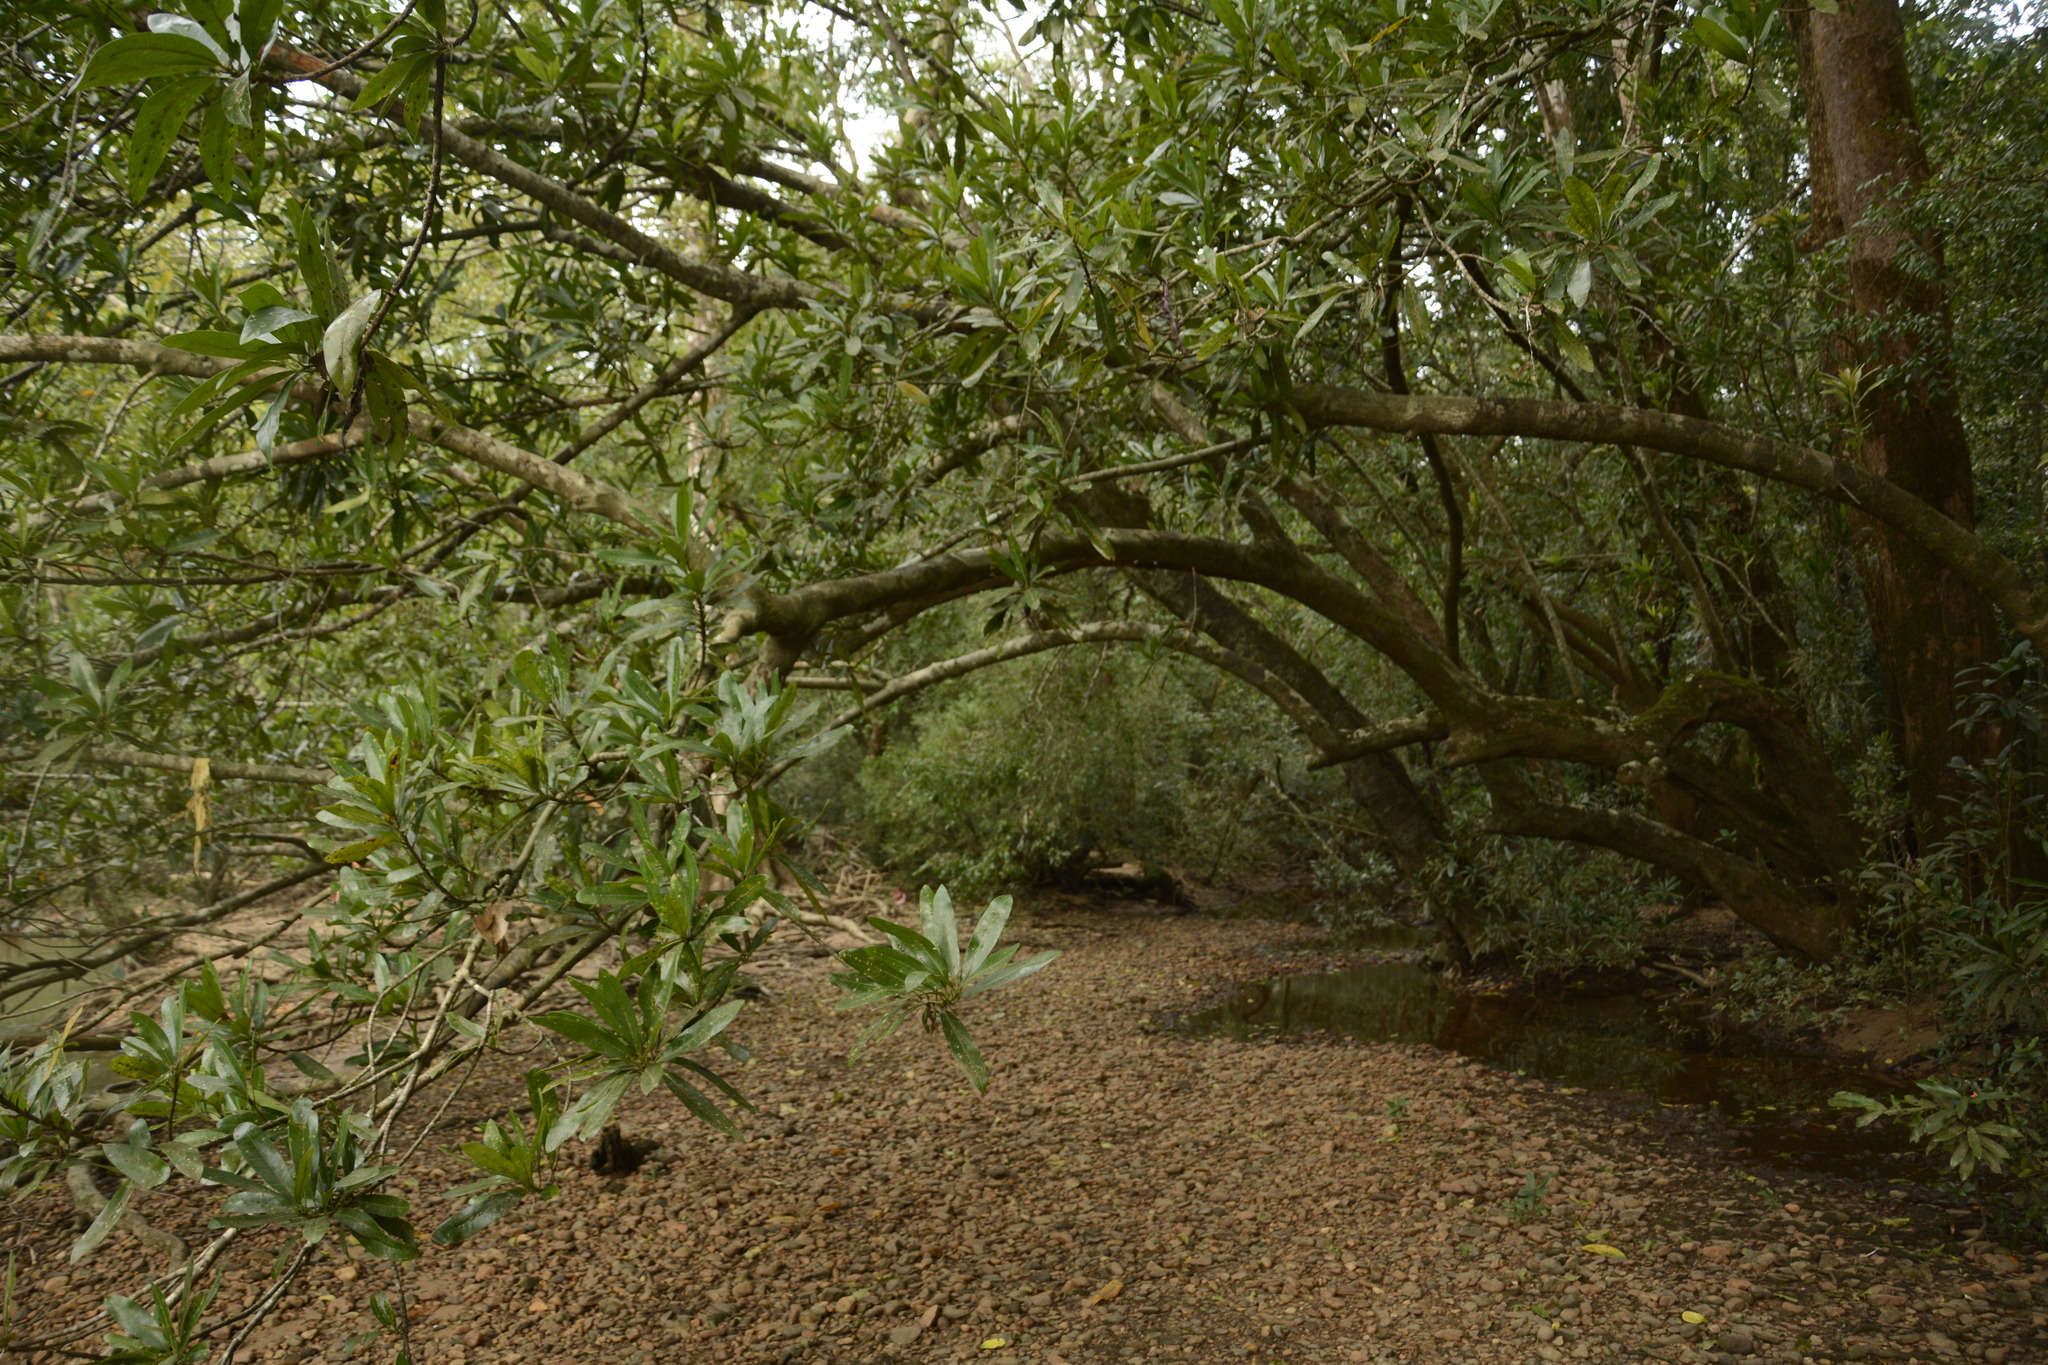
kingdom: Plantae
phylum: Tracheophyta
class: Magnoliopsida
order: Ericales
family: Sapotaceae
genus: Madhuca
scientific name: Madhuca neriifolia
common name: Illipe butter tree
